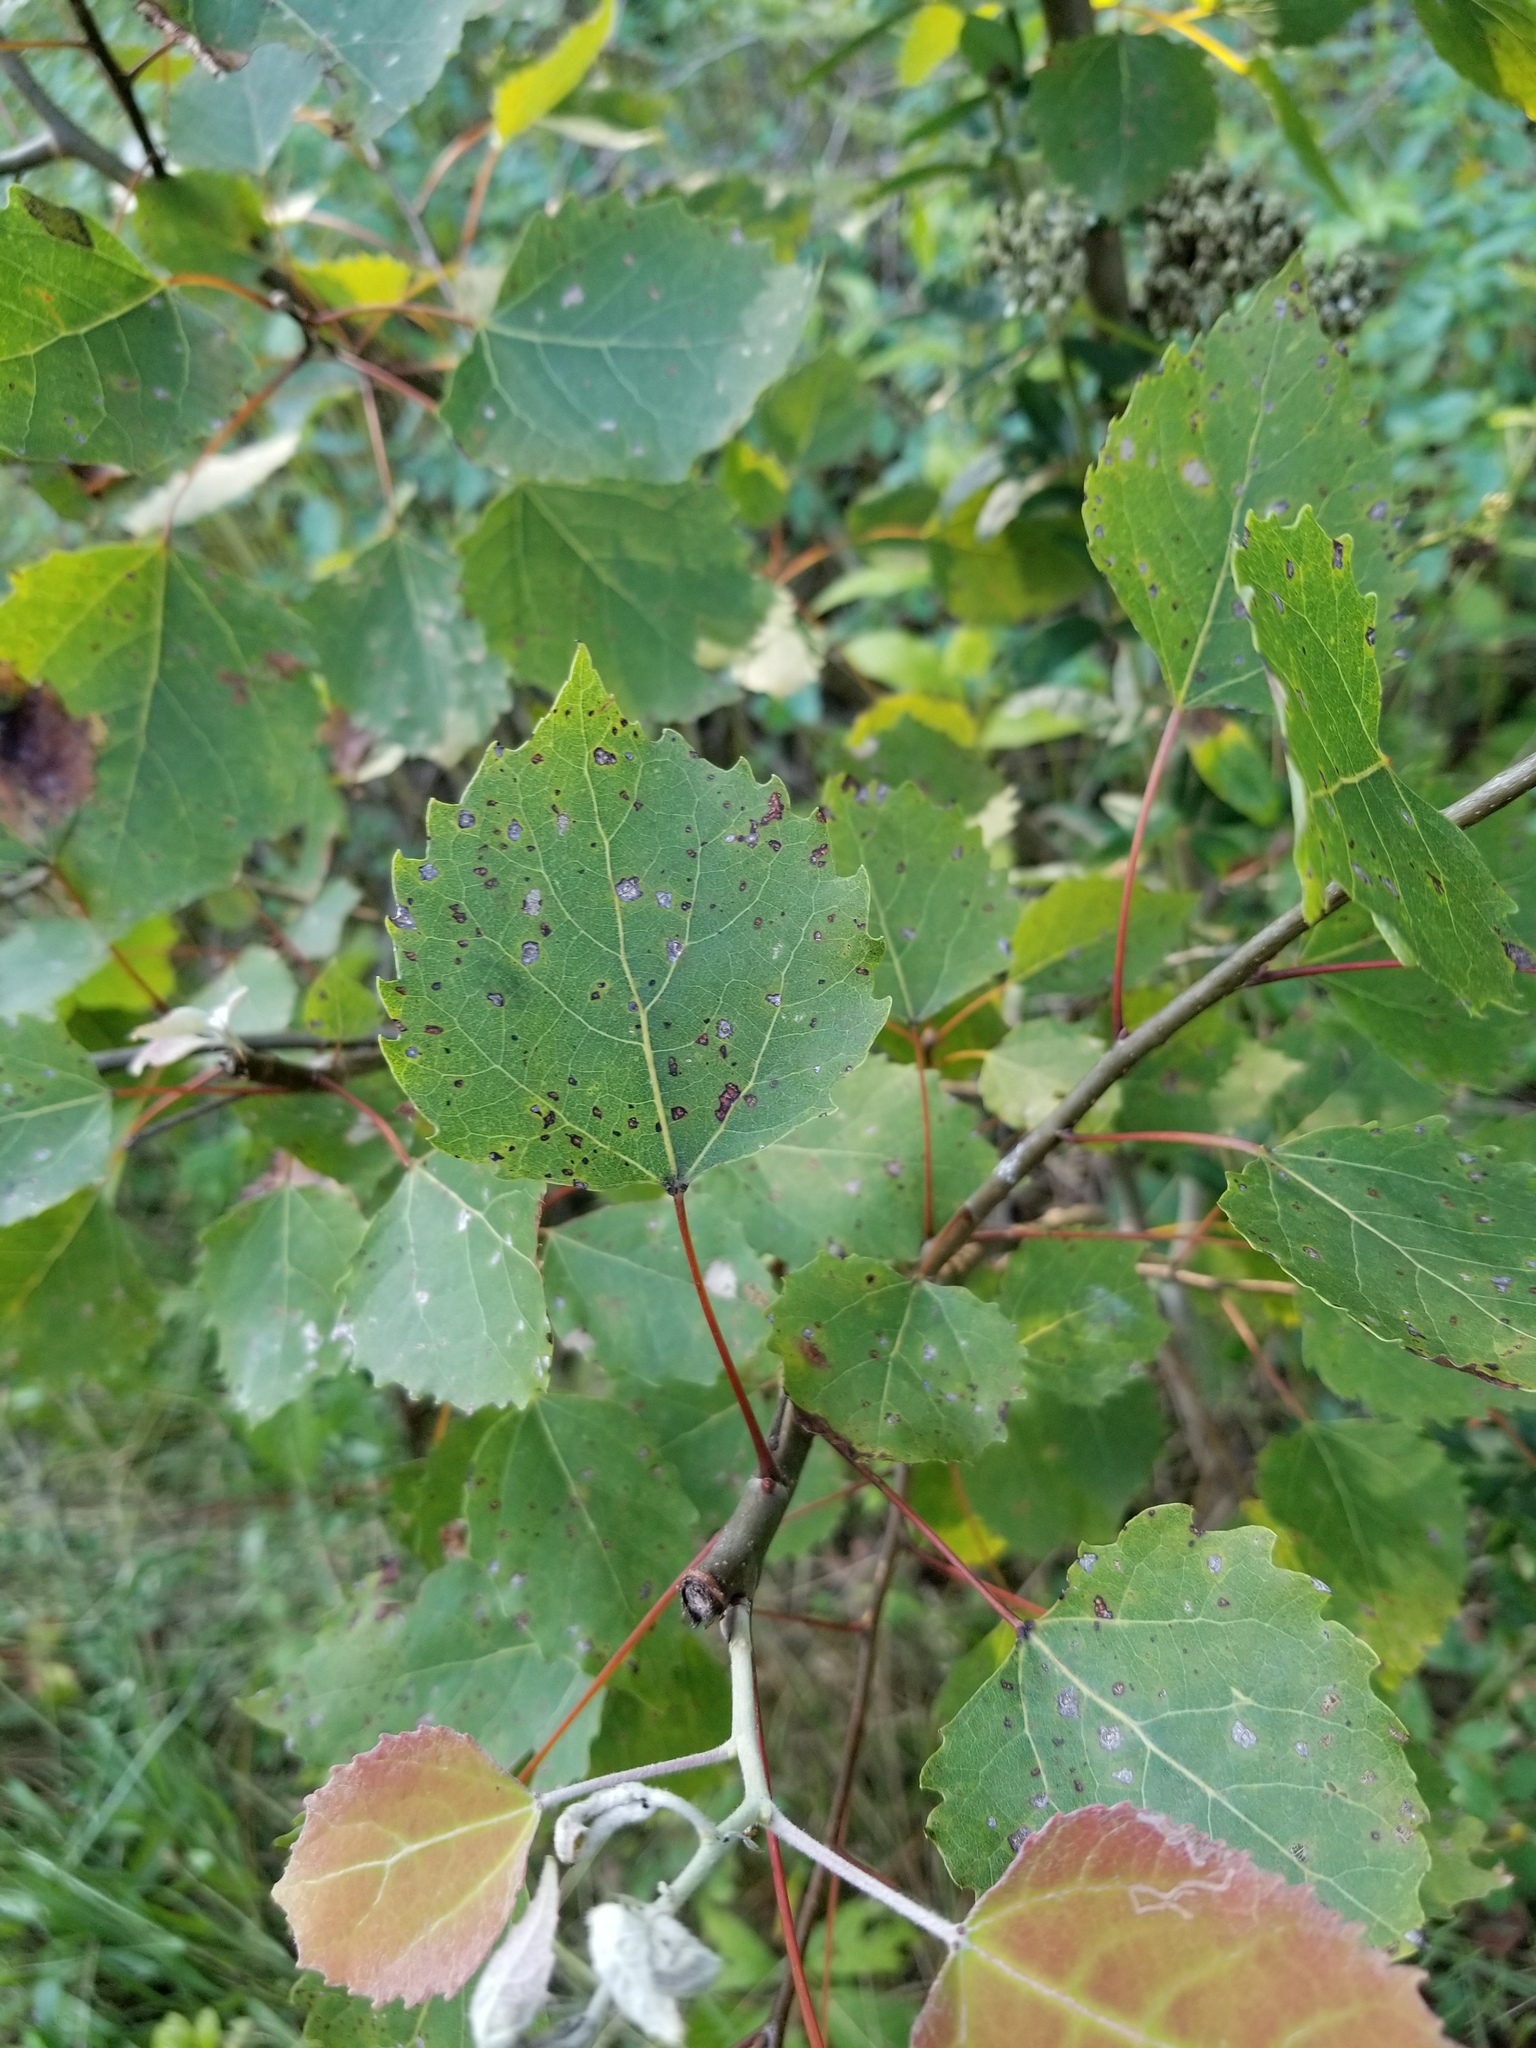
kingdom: Plantae
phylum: Tracheophyta
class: Magnoliopsida
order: Malpighiales
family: Salicaceae
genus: Populus
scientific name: Populus grandidentata
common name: Bigtooth aspen
